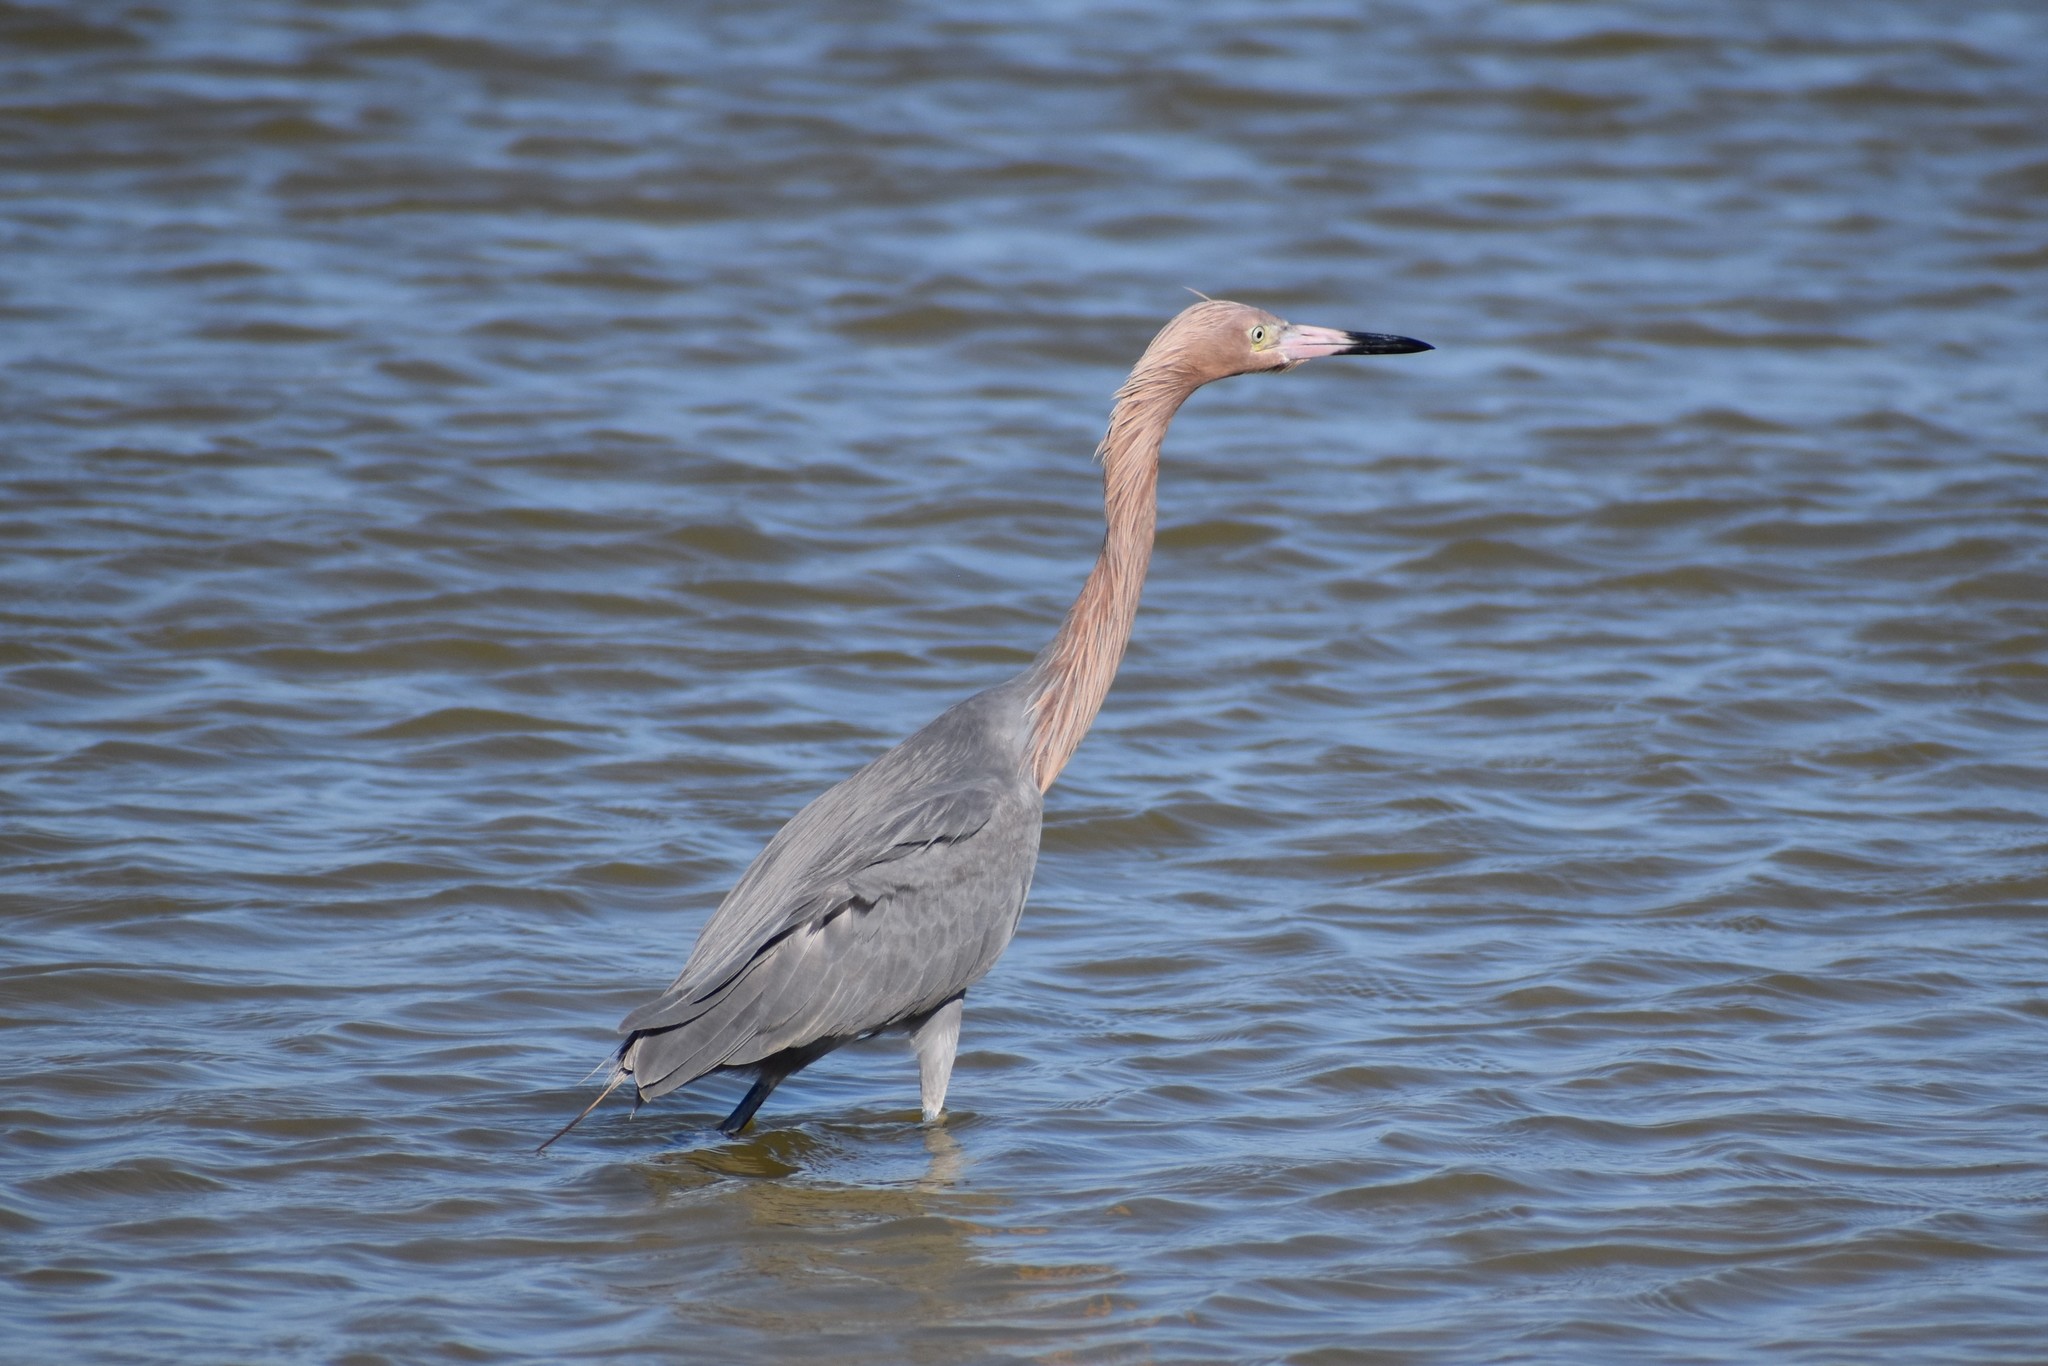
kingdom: Animalia
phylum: Chordata
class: Aves
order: Pelecaniformes
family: Ardeidae
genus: Egretta
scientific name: Egretta rufescens
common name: Reddish egret
